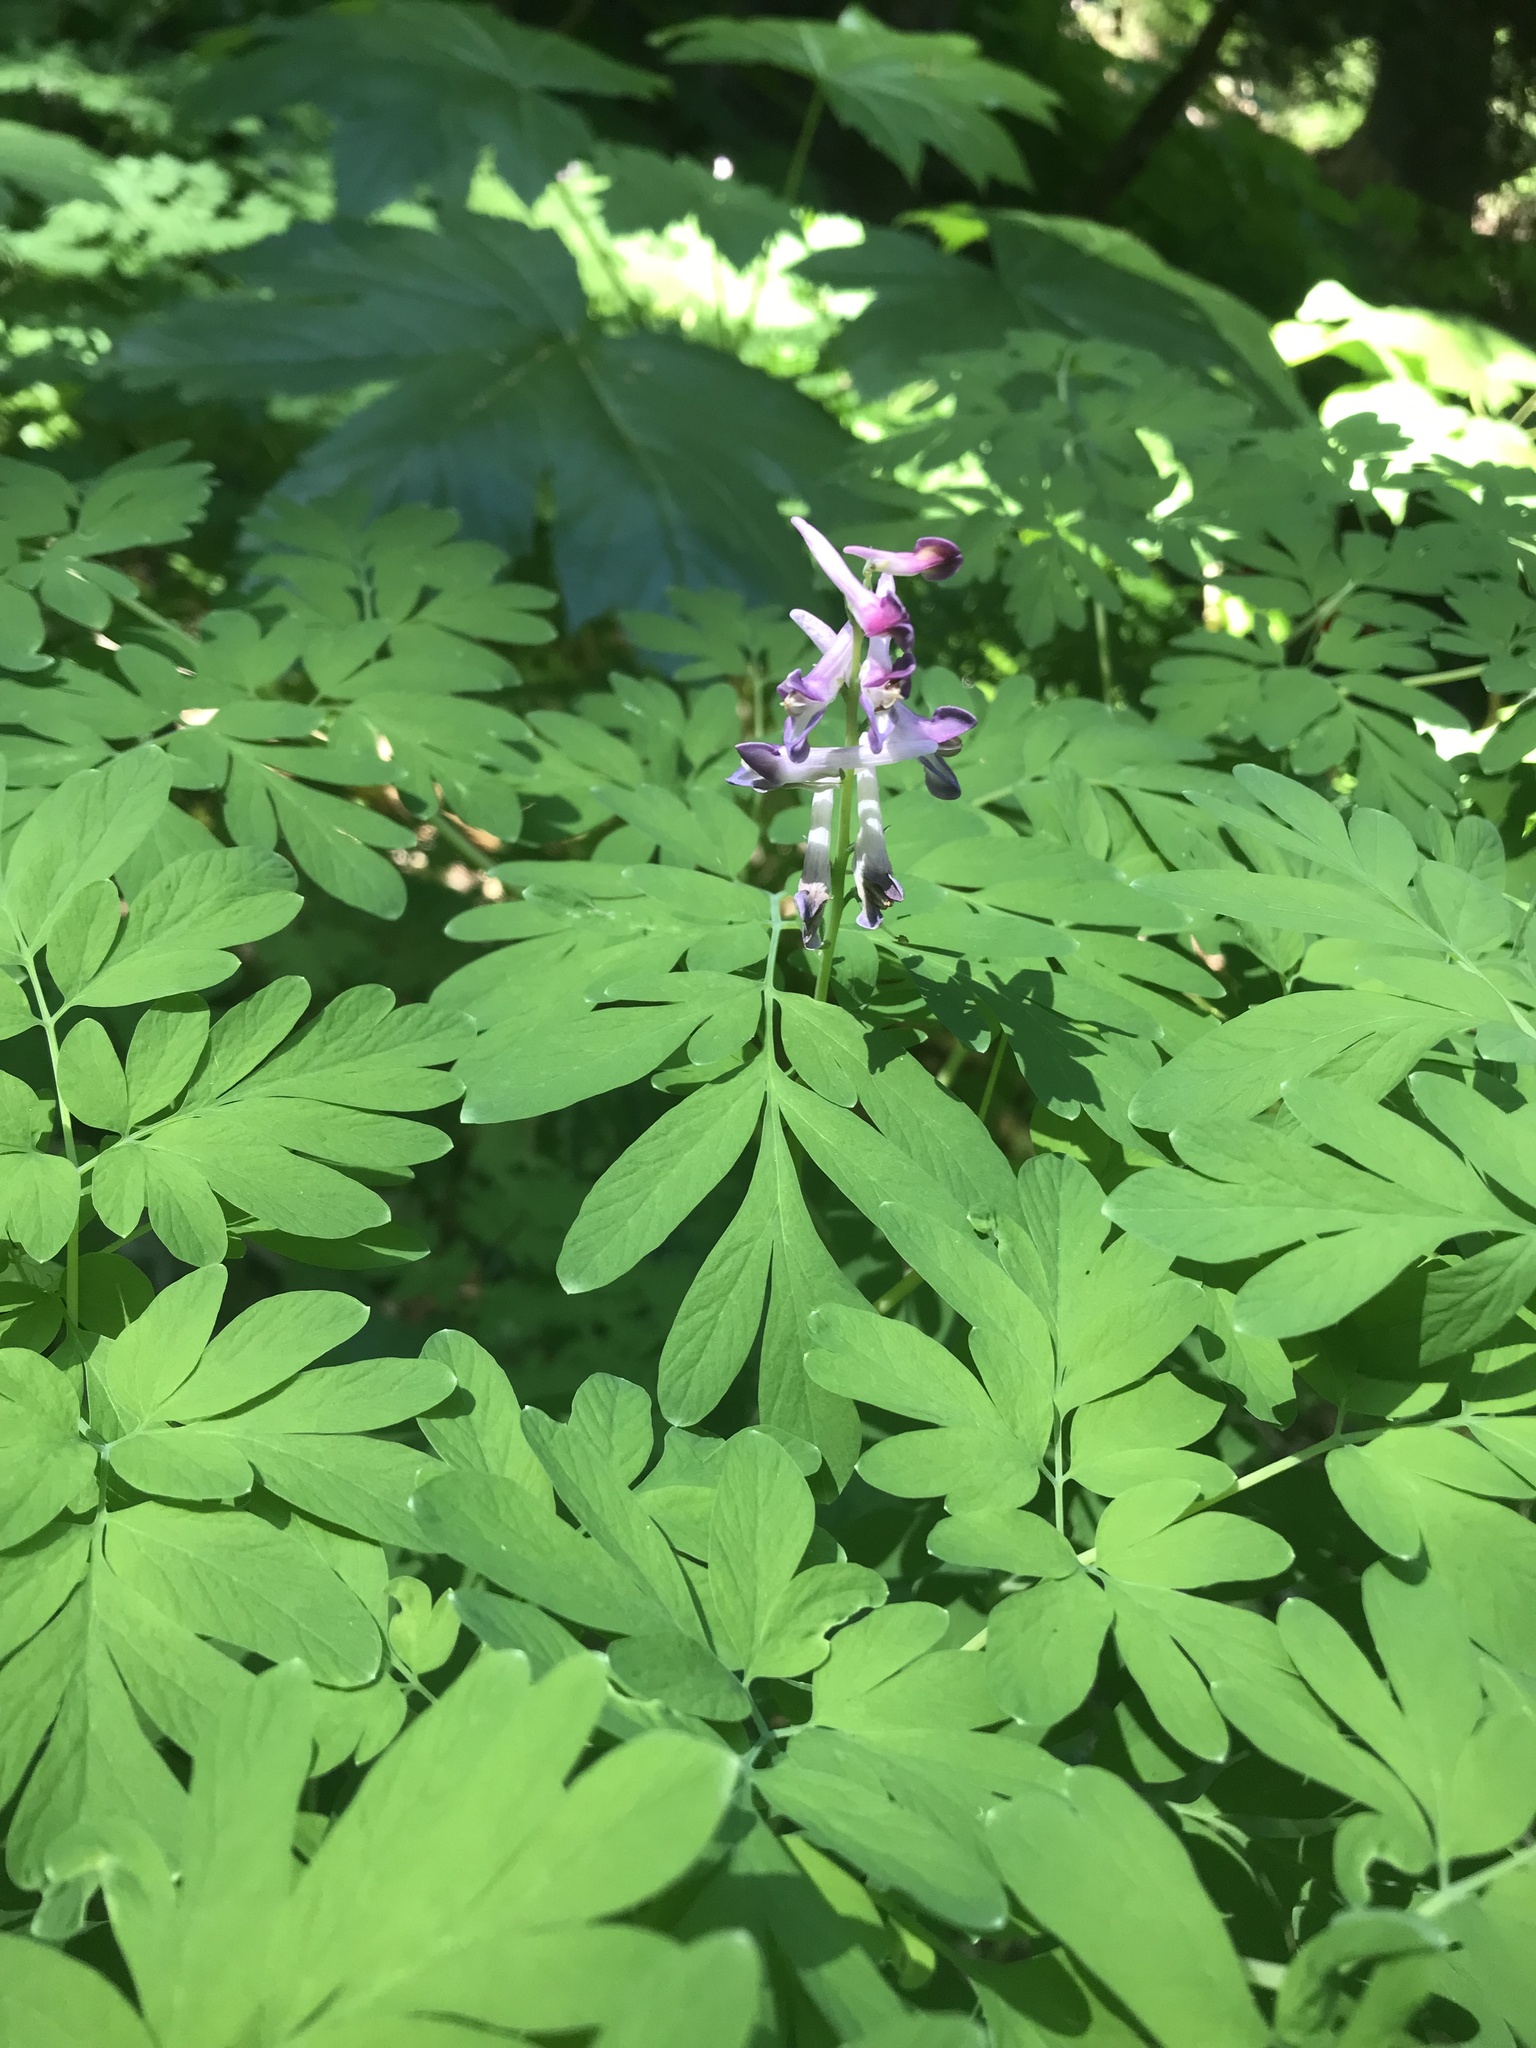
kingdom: Plantae
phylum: Tracheophyta
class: Magnoliopsida
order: Ranunculales
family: Papaveraceae
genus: Corydalis
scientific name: Corydalis scouleri
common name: Scouler's corydalis
